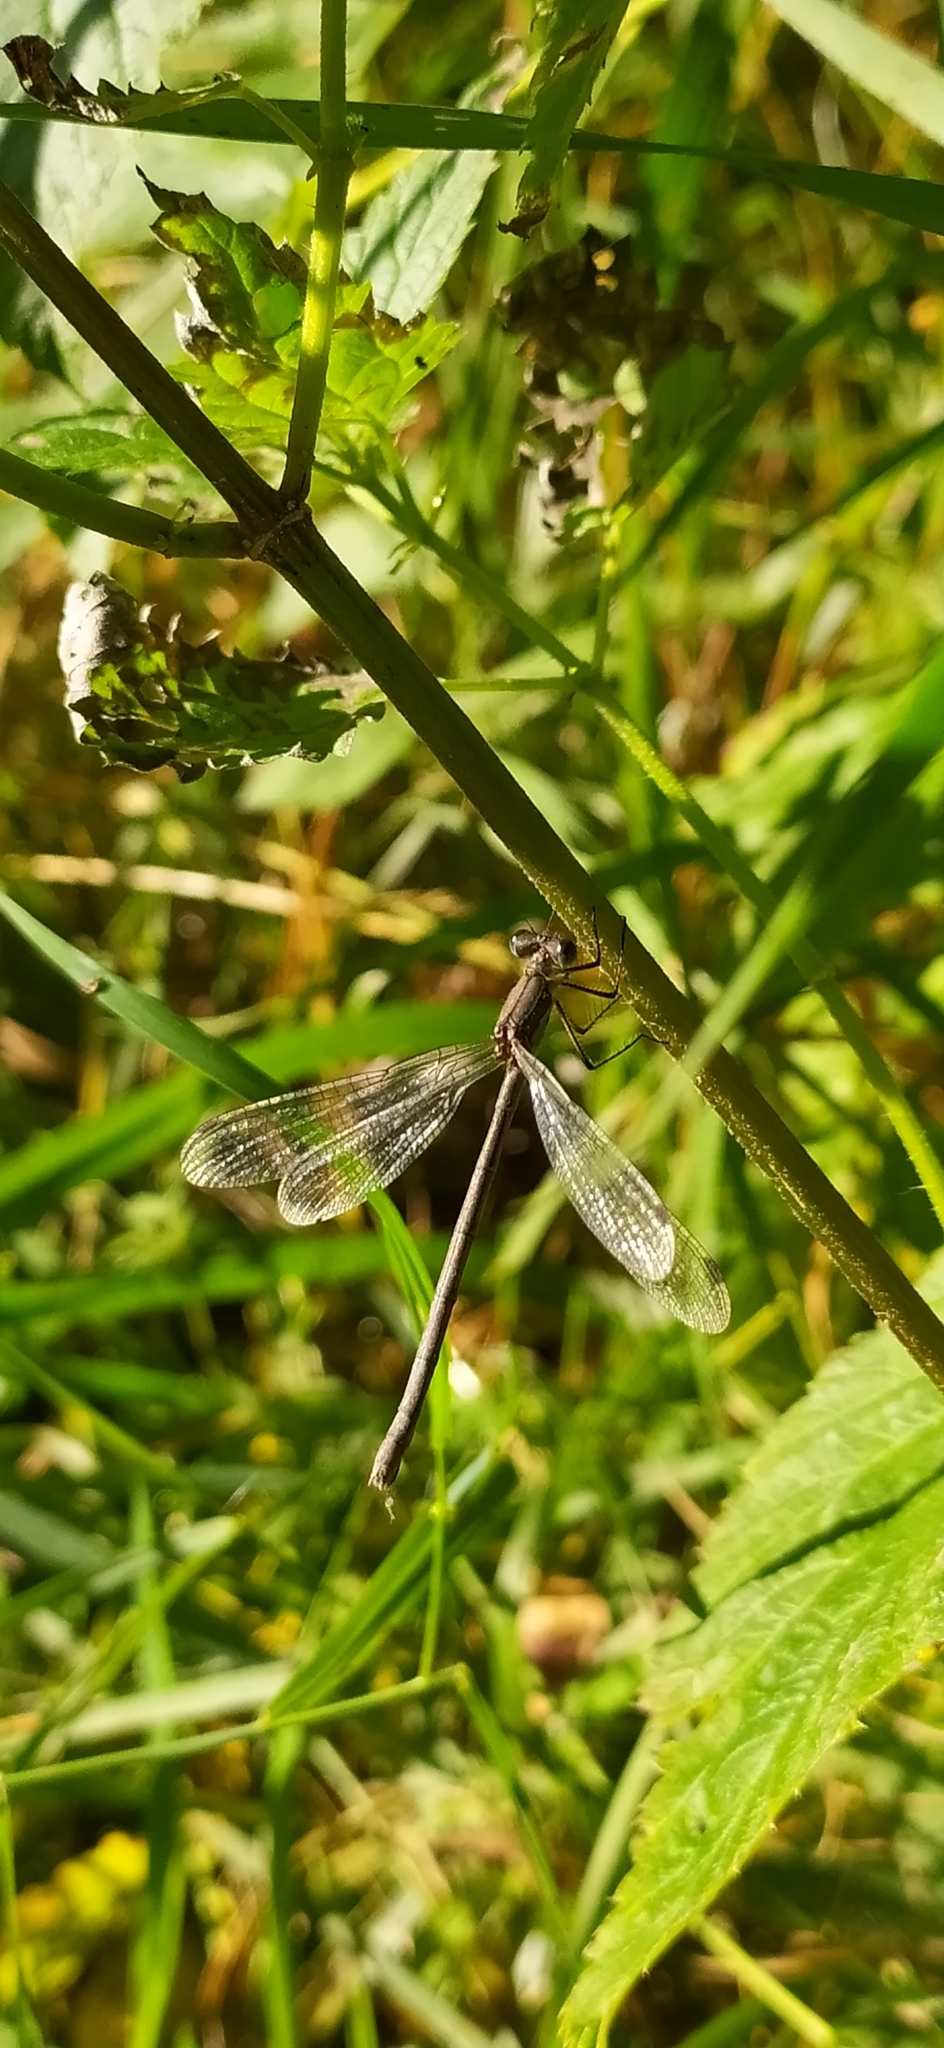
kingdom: Animalia
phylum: Arthropoda
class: Insecta
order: Odonata
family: Lestidae
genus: Lestes
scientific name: Lestes sponsa
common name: Common spreadwing
